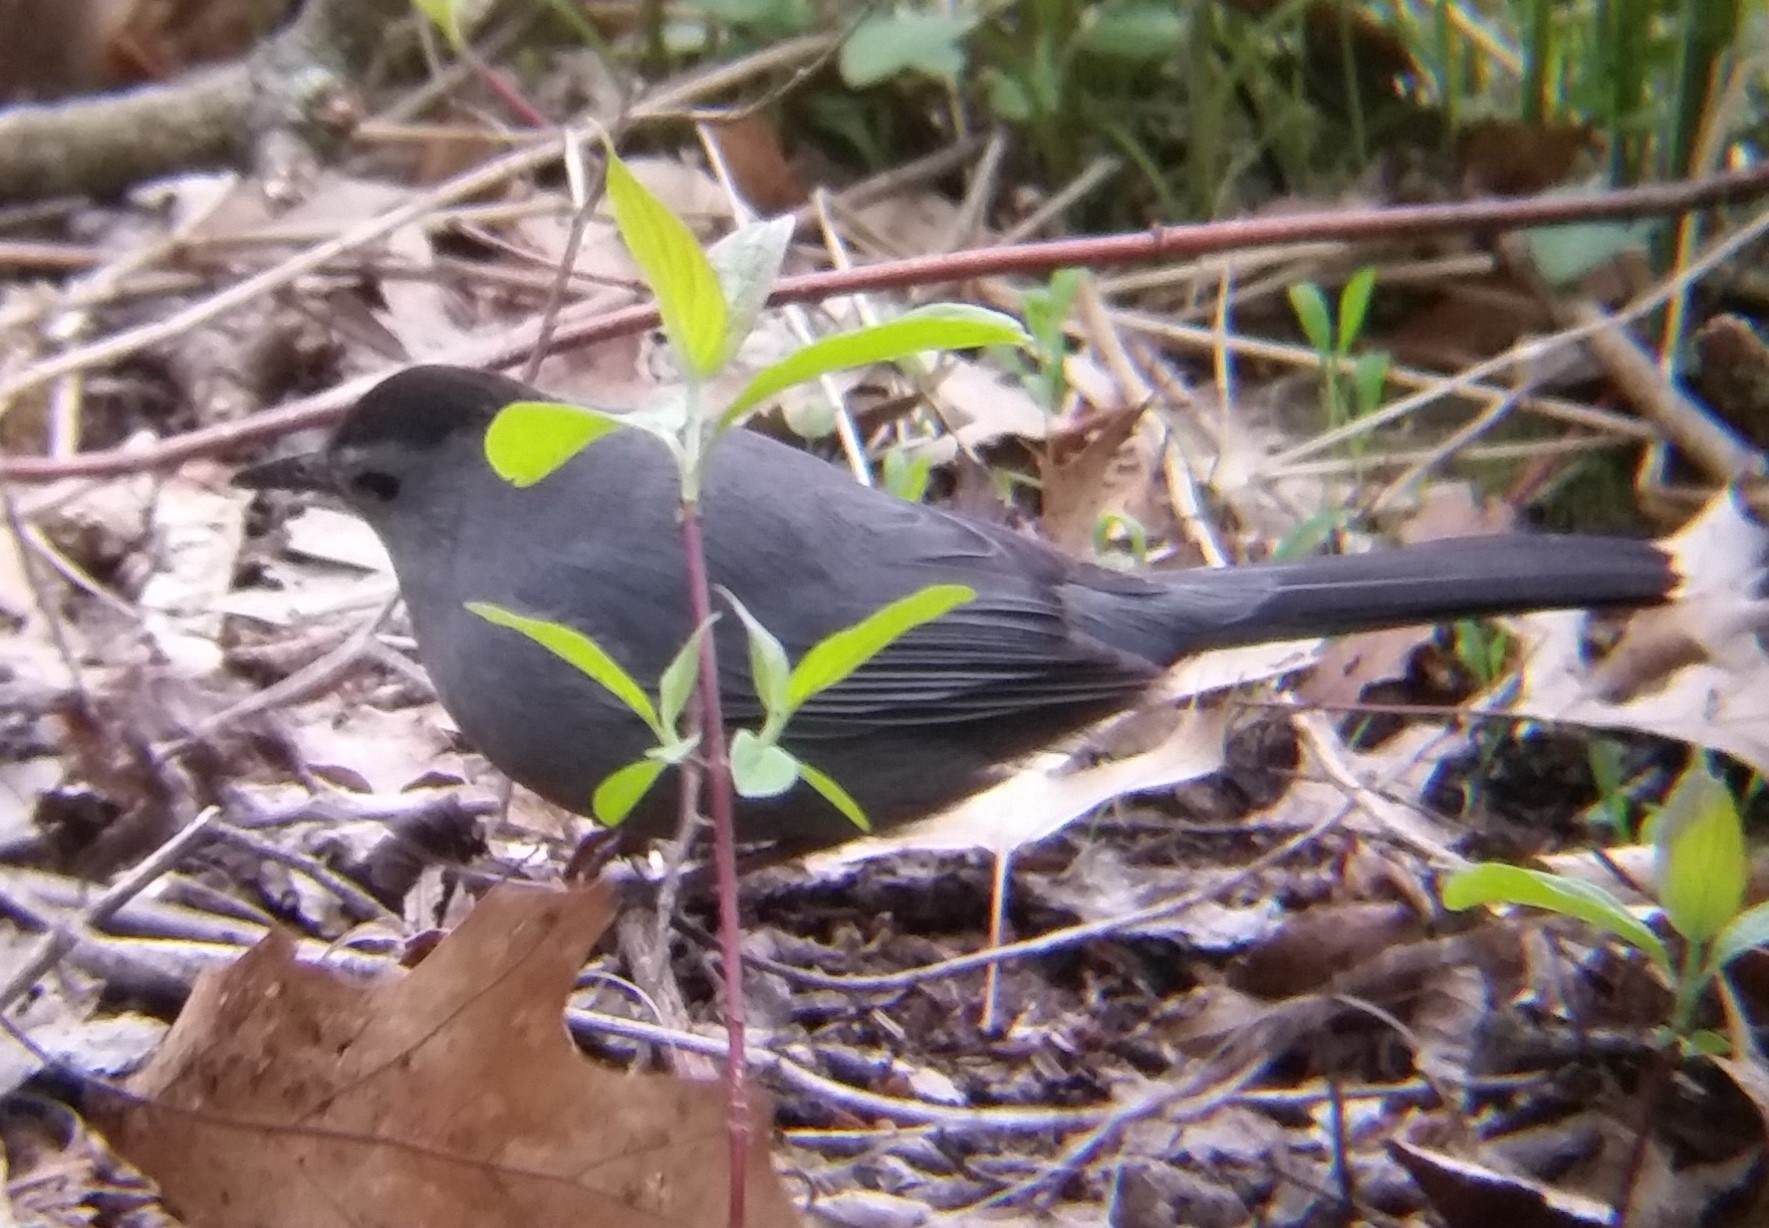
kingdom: Animalia
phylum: Chordata
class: Aves
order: Passeriformes
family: Mimidae
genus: Dumetella
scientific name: Dumetella carolinensis
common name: Gray catbird
